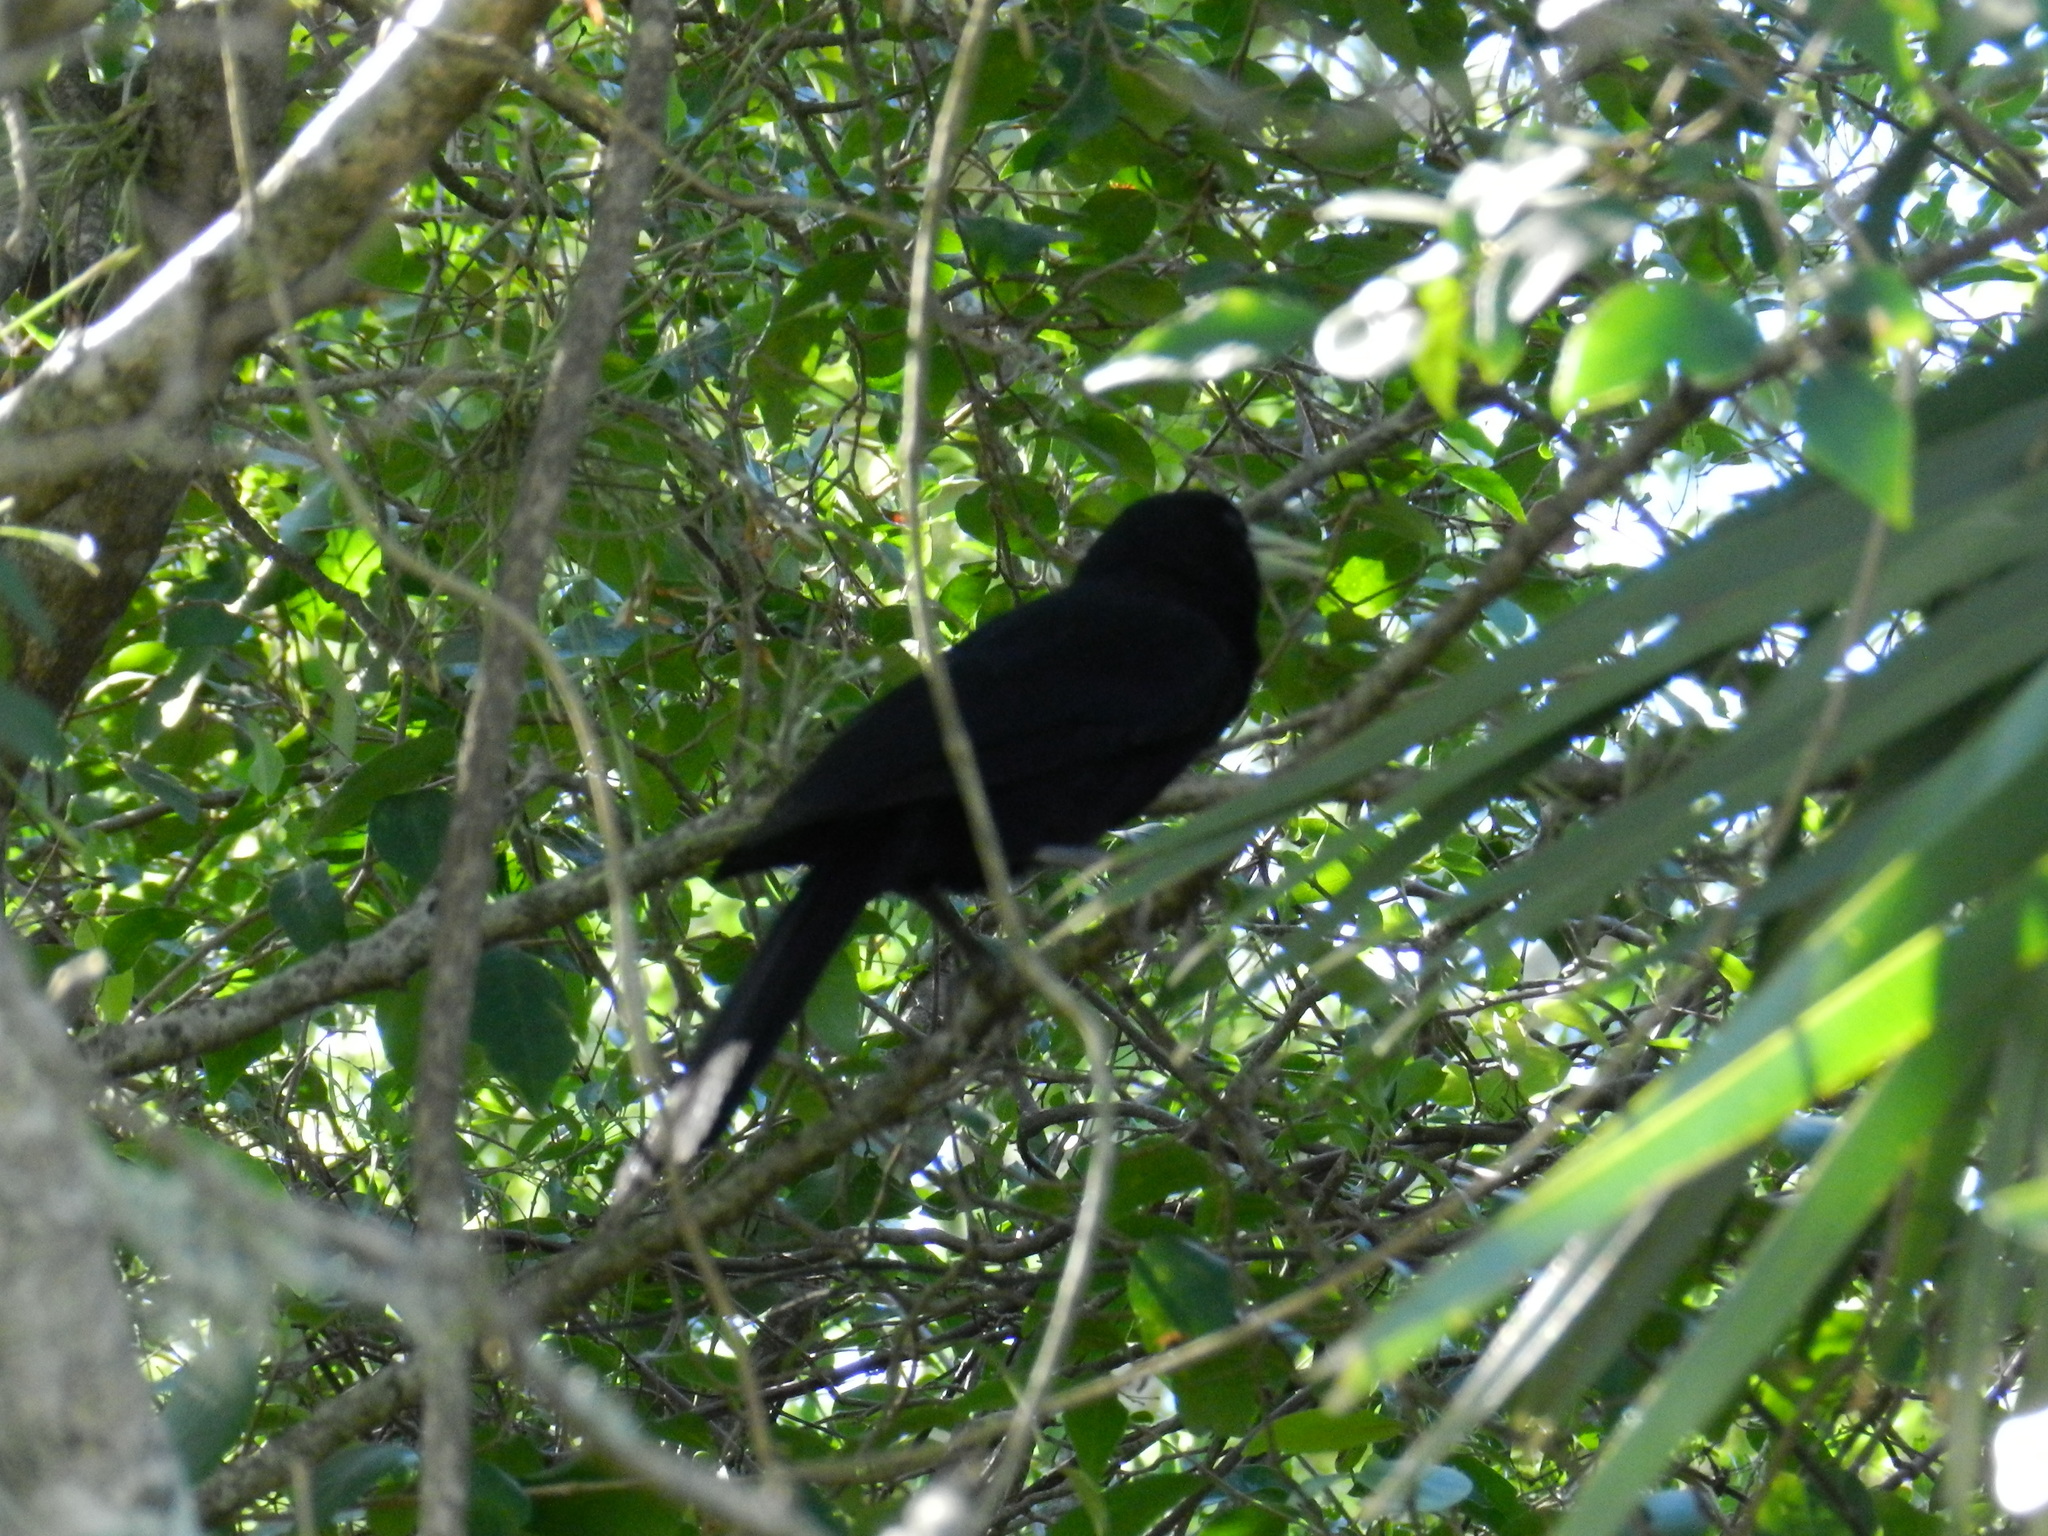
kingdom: Animalia
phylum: Chordata
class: Aves
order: Passeriformes
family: Icteridae
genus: Cacicus
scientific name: Cacicus solitarius
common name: Solitary cacique
